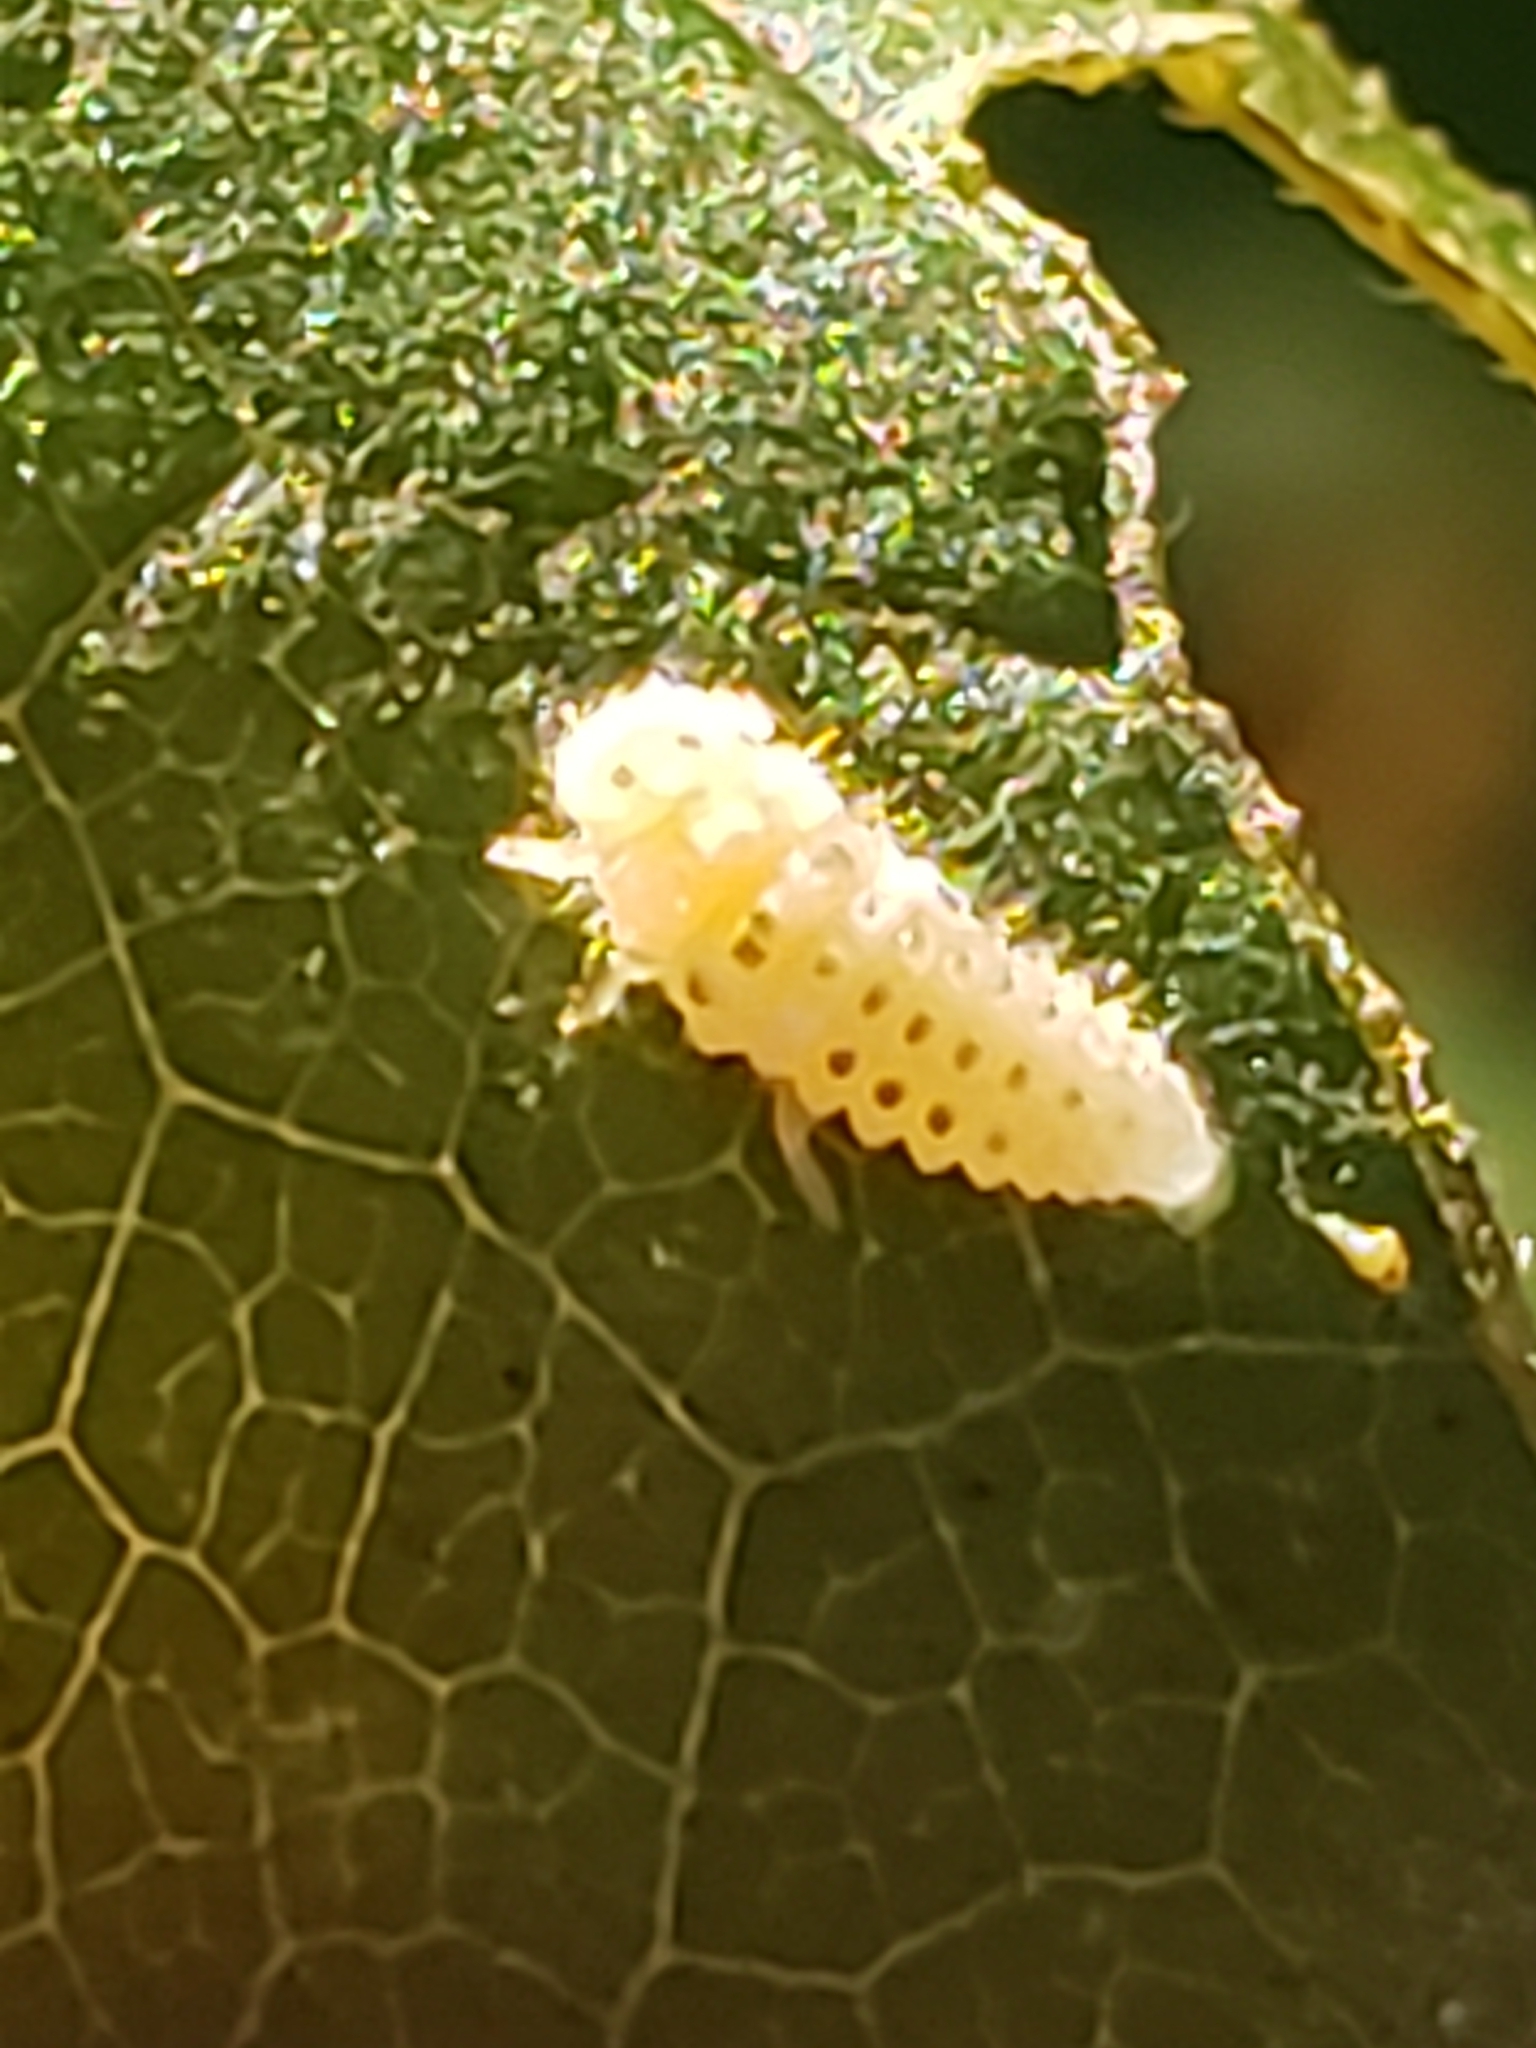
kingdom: Animalia
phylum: Arthropoda
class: Insecta
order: Coleoptera
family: Coccinellidae
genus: Psyllobora
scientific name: Psyllobora vigintimaculata
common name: Ladybird beetle
